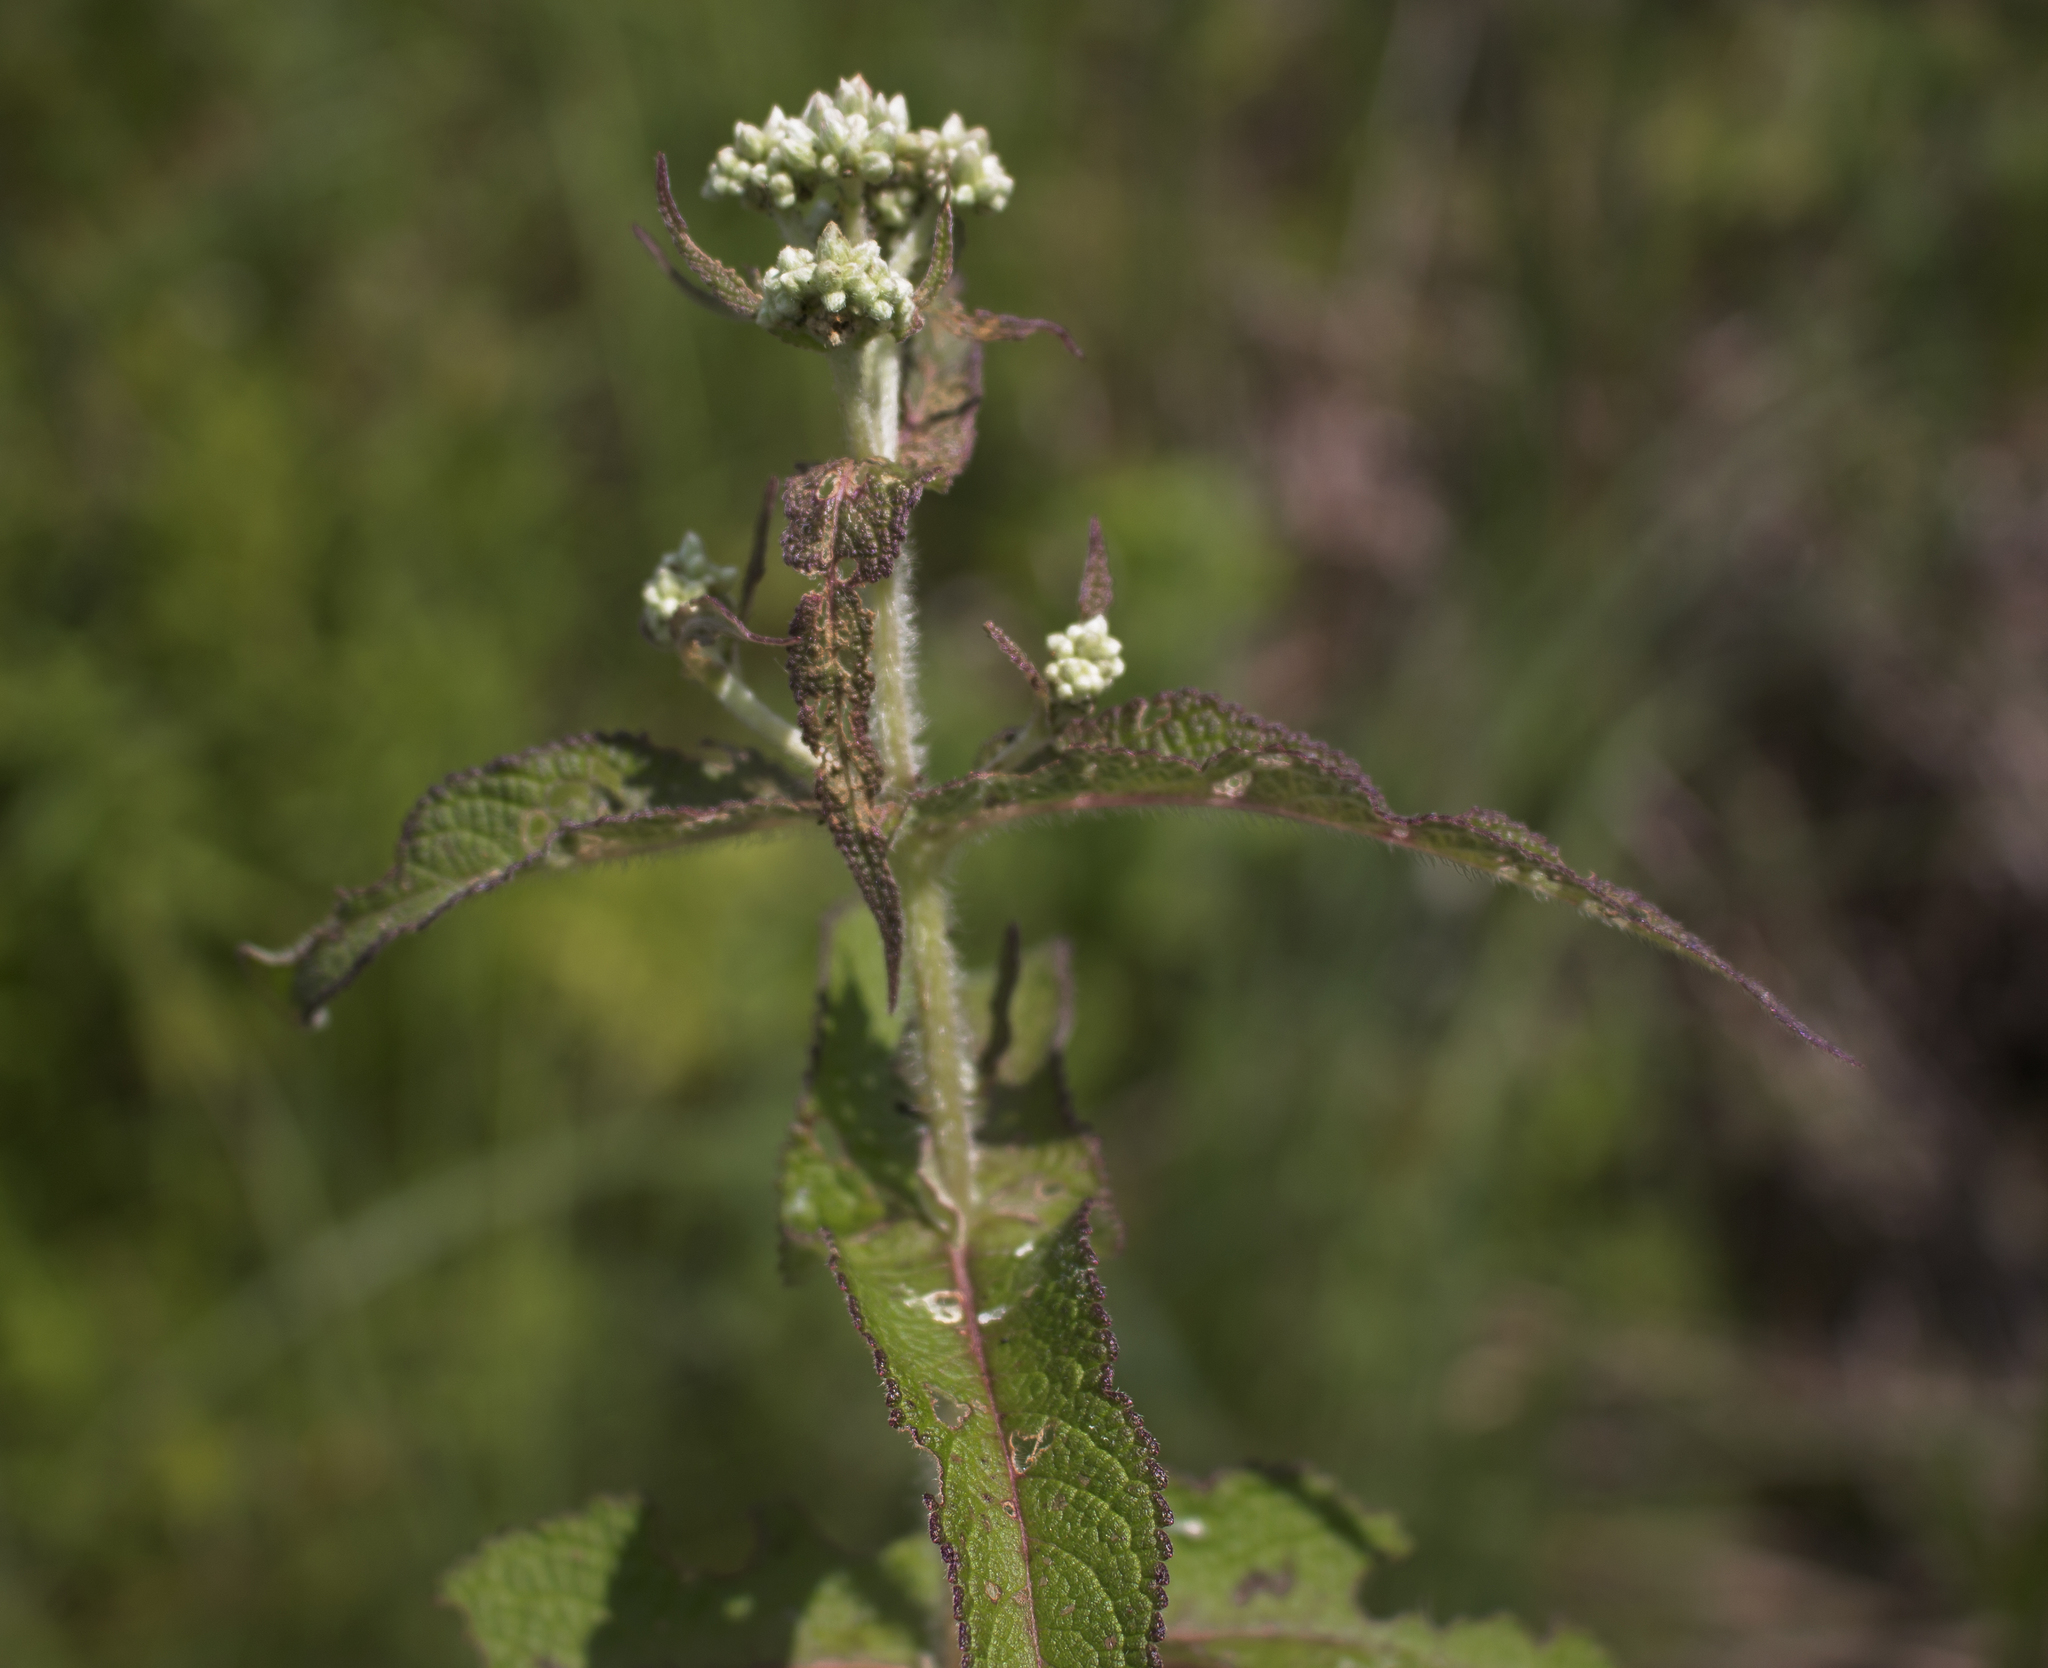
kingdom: Plantae
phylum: Tracheophyta
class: Magnoliopsida
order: Asterales
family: Asteraceae
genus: Eupatorium
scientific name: Eupatorium perfoliatum
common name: Boneset
